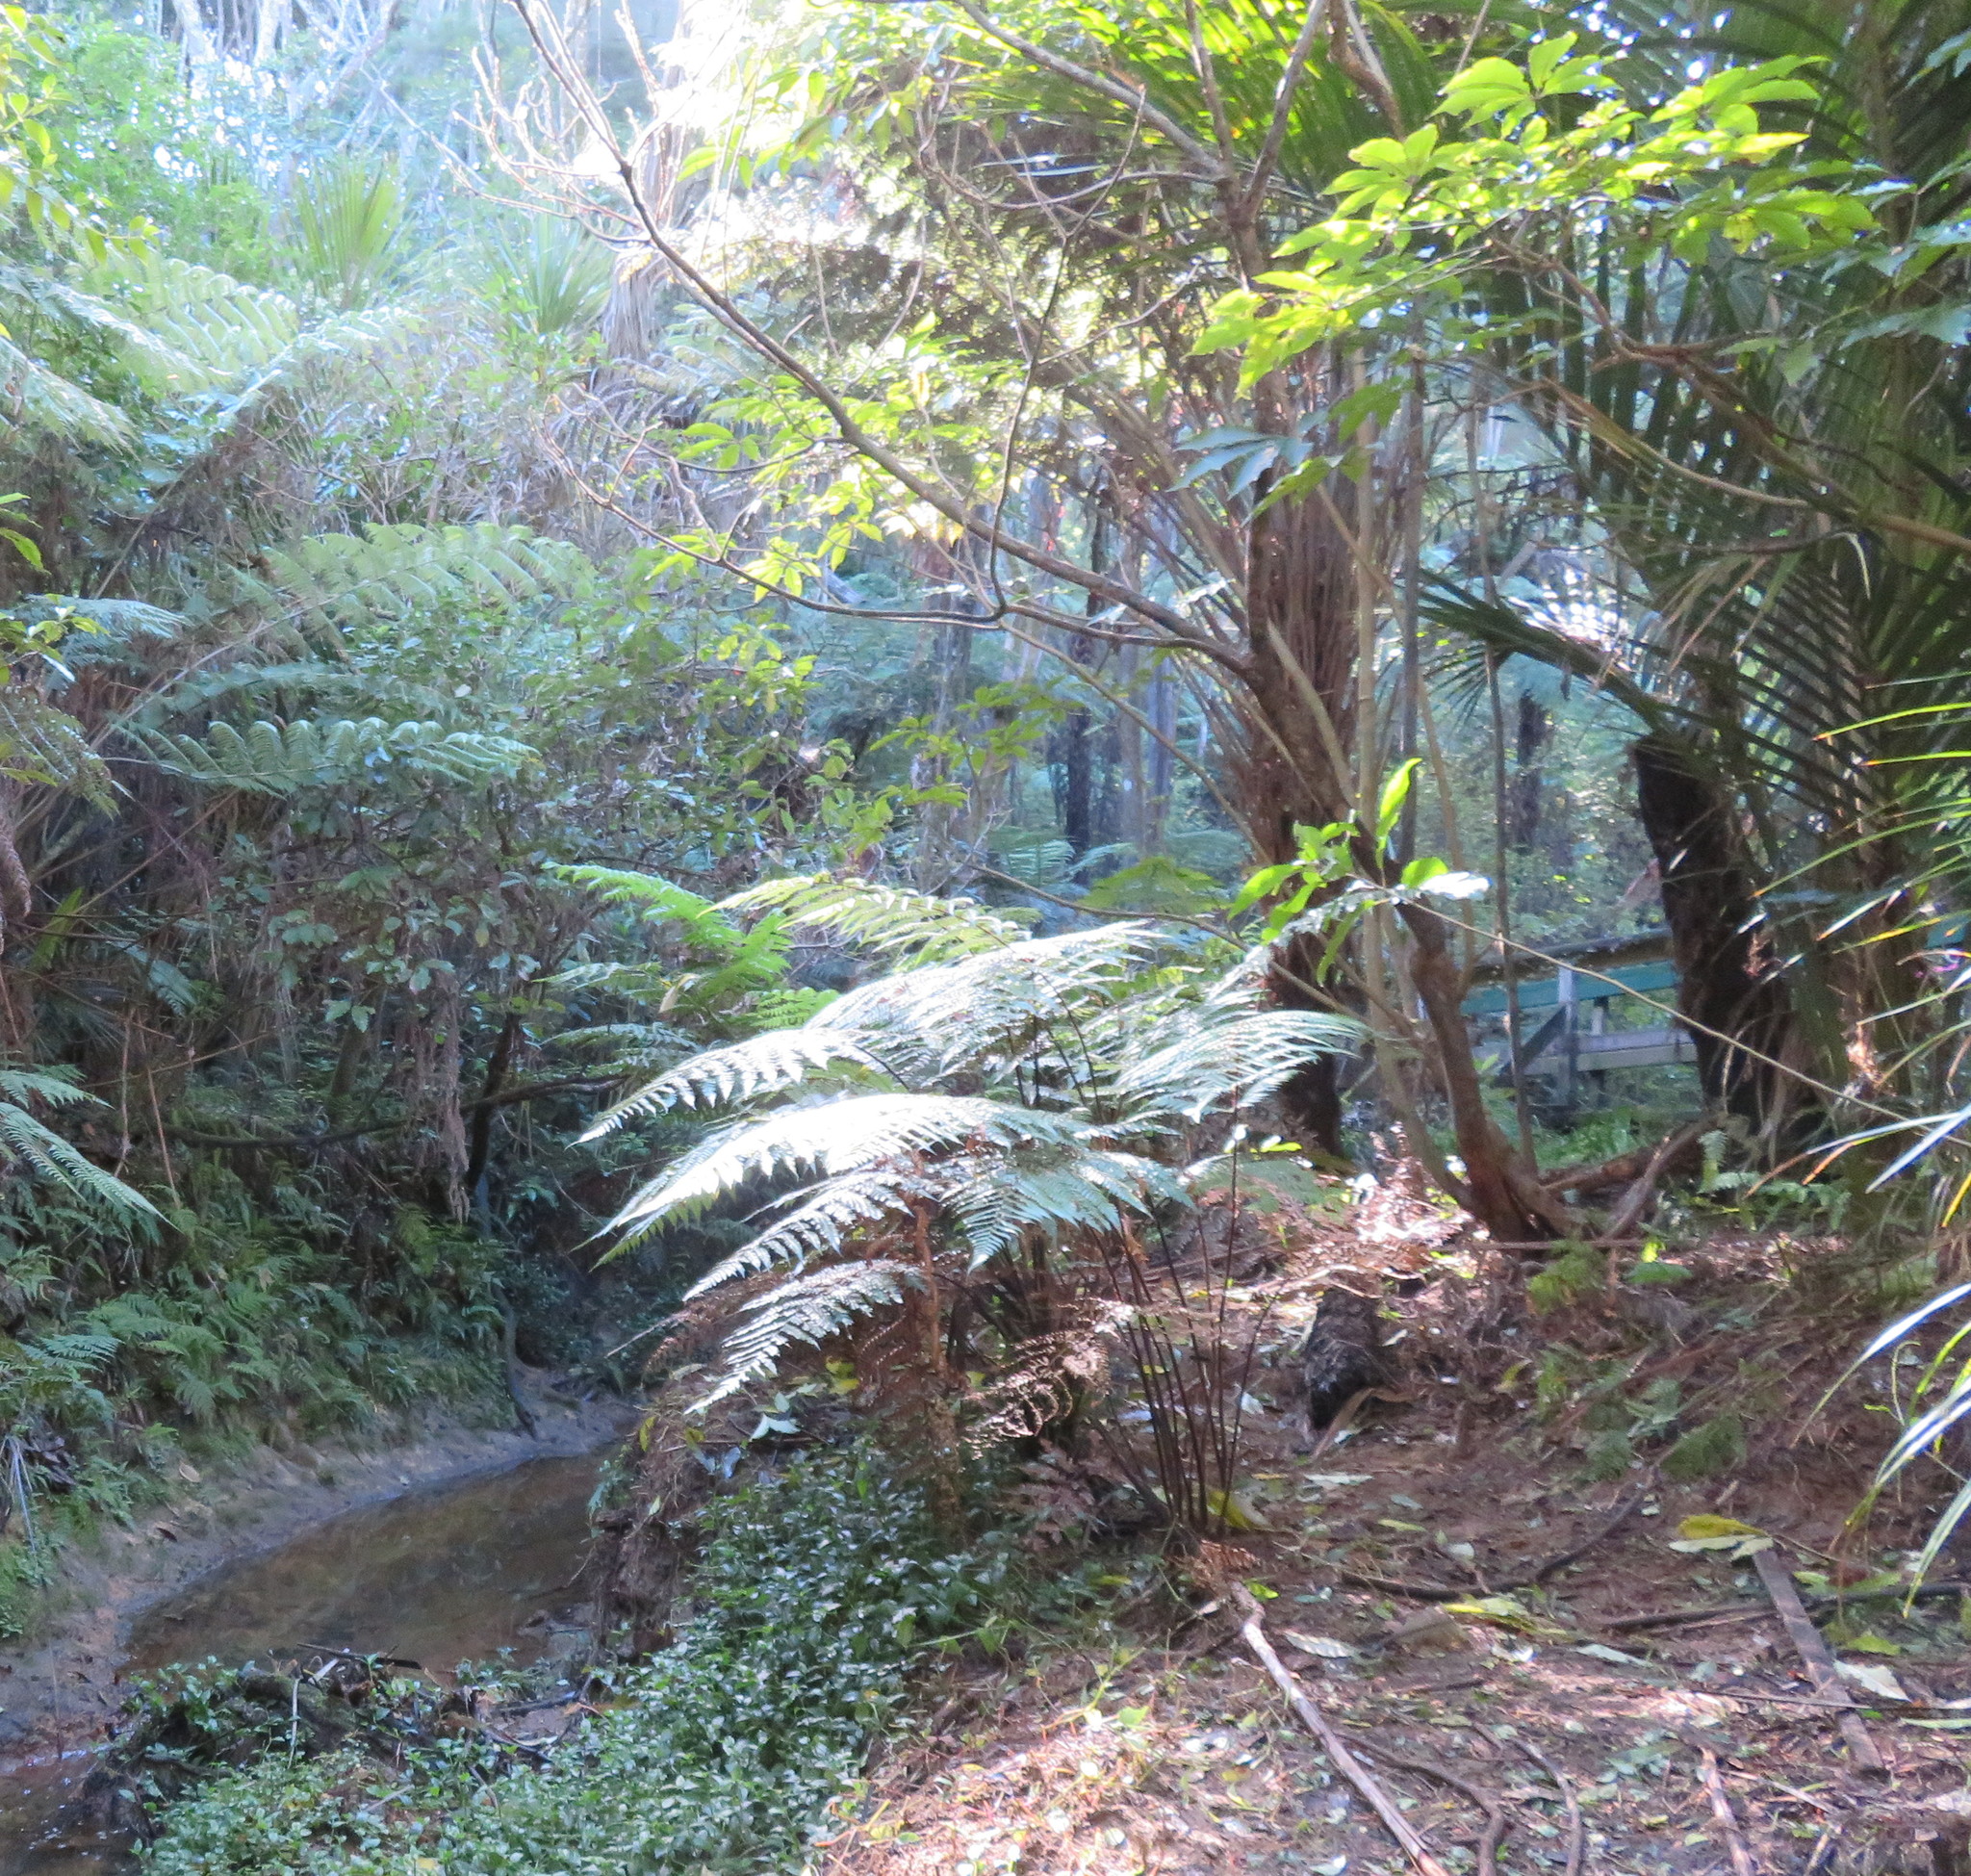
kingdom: Plantae
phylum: Tracheophyta
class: Magnoliopsida
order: Apiales
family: Araliaceae
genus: Schefflera
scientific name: Schefflera digitata
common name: Pate
